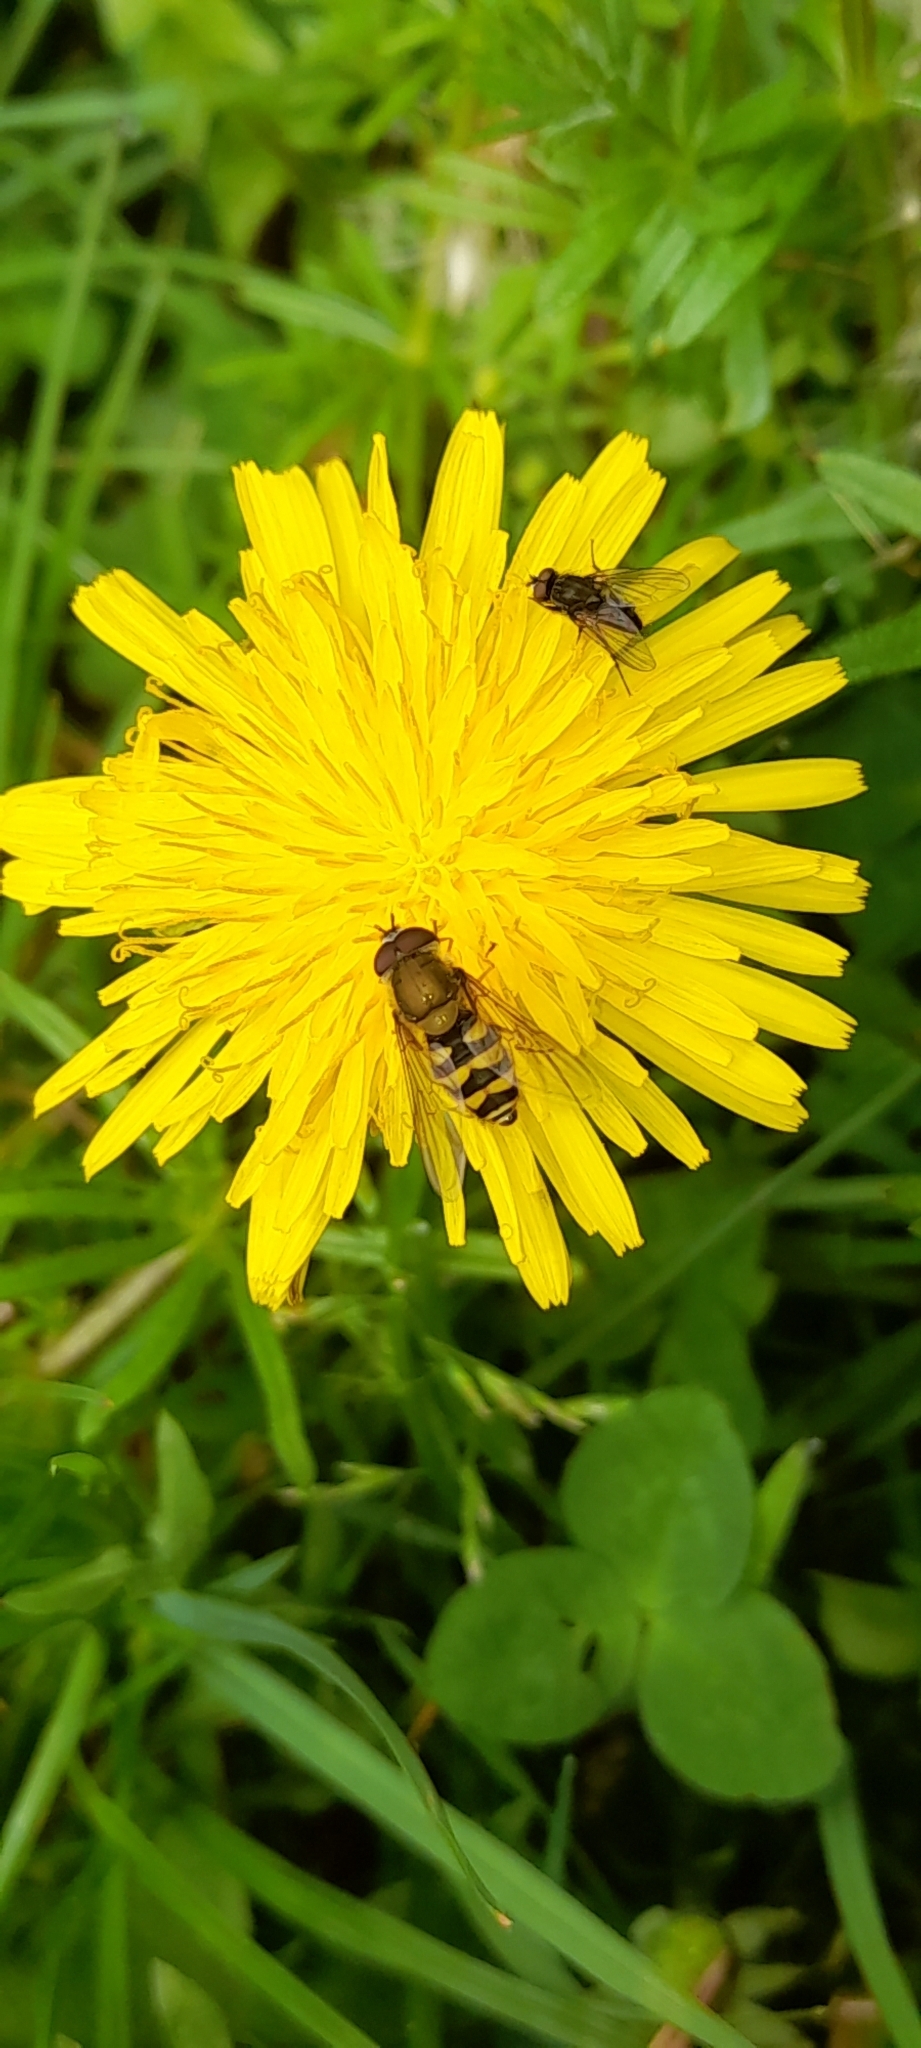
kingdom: Animalia
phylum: Arthropoda
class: Insecta
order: Diptera
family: Syrphidae
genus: Syrphus
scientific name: Syrphus
